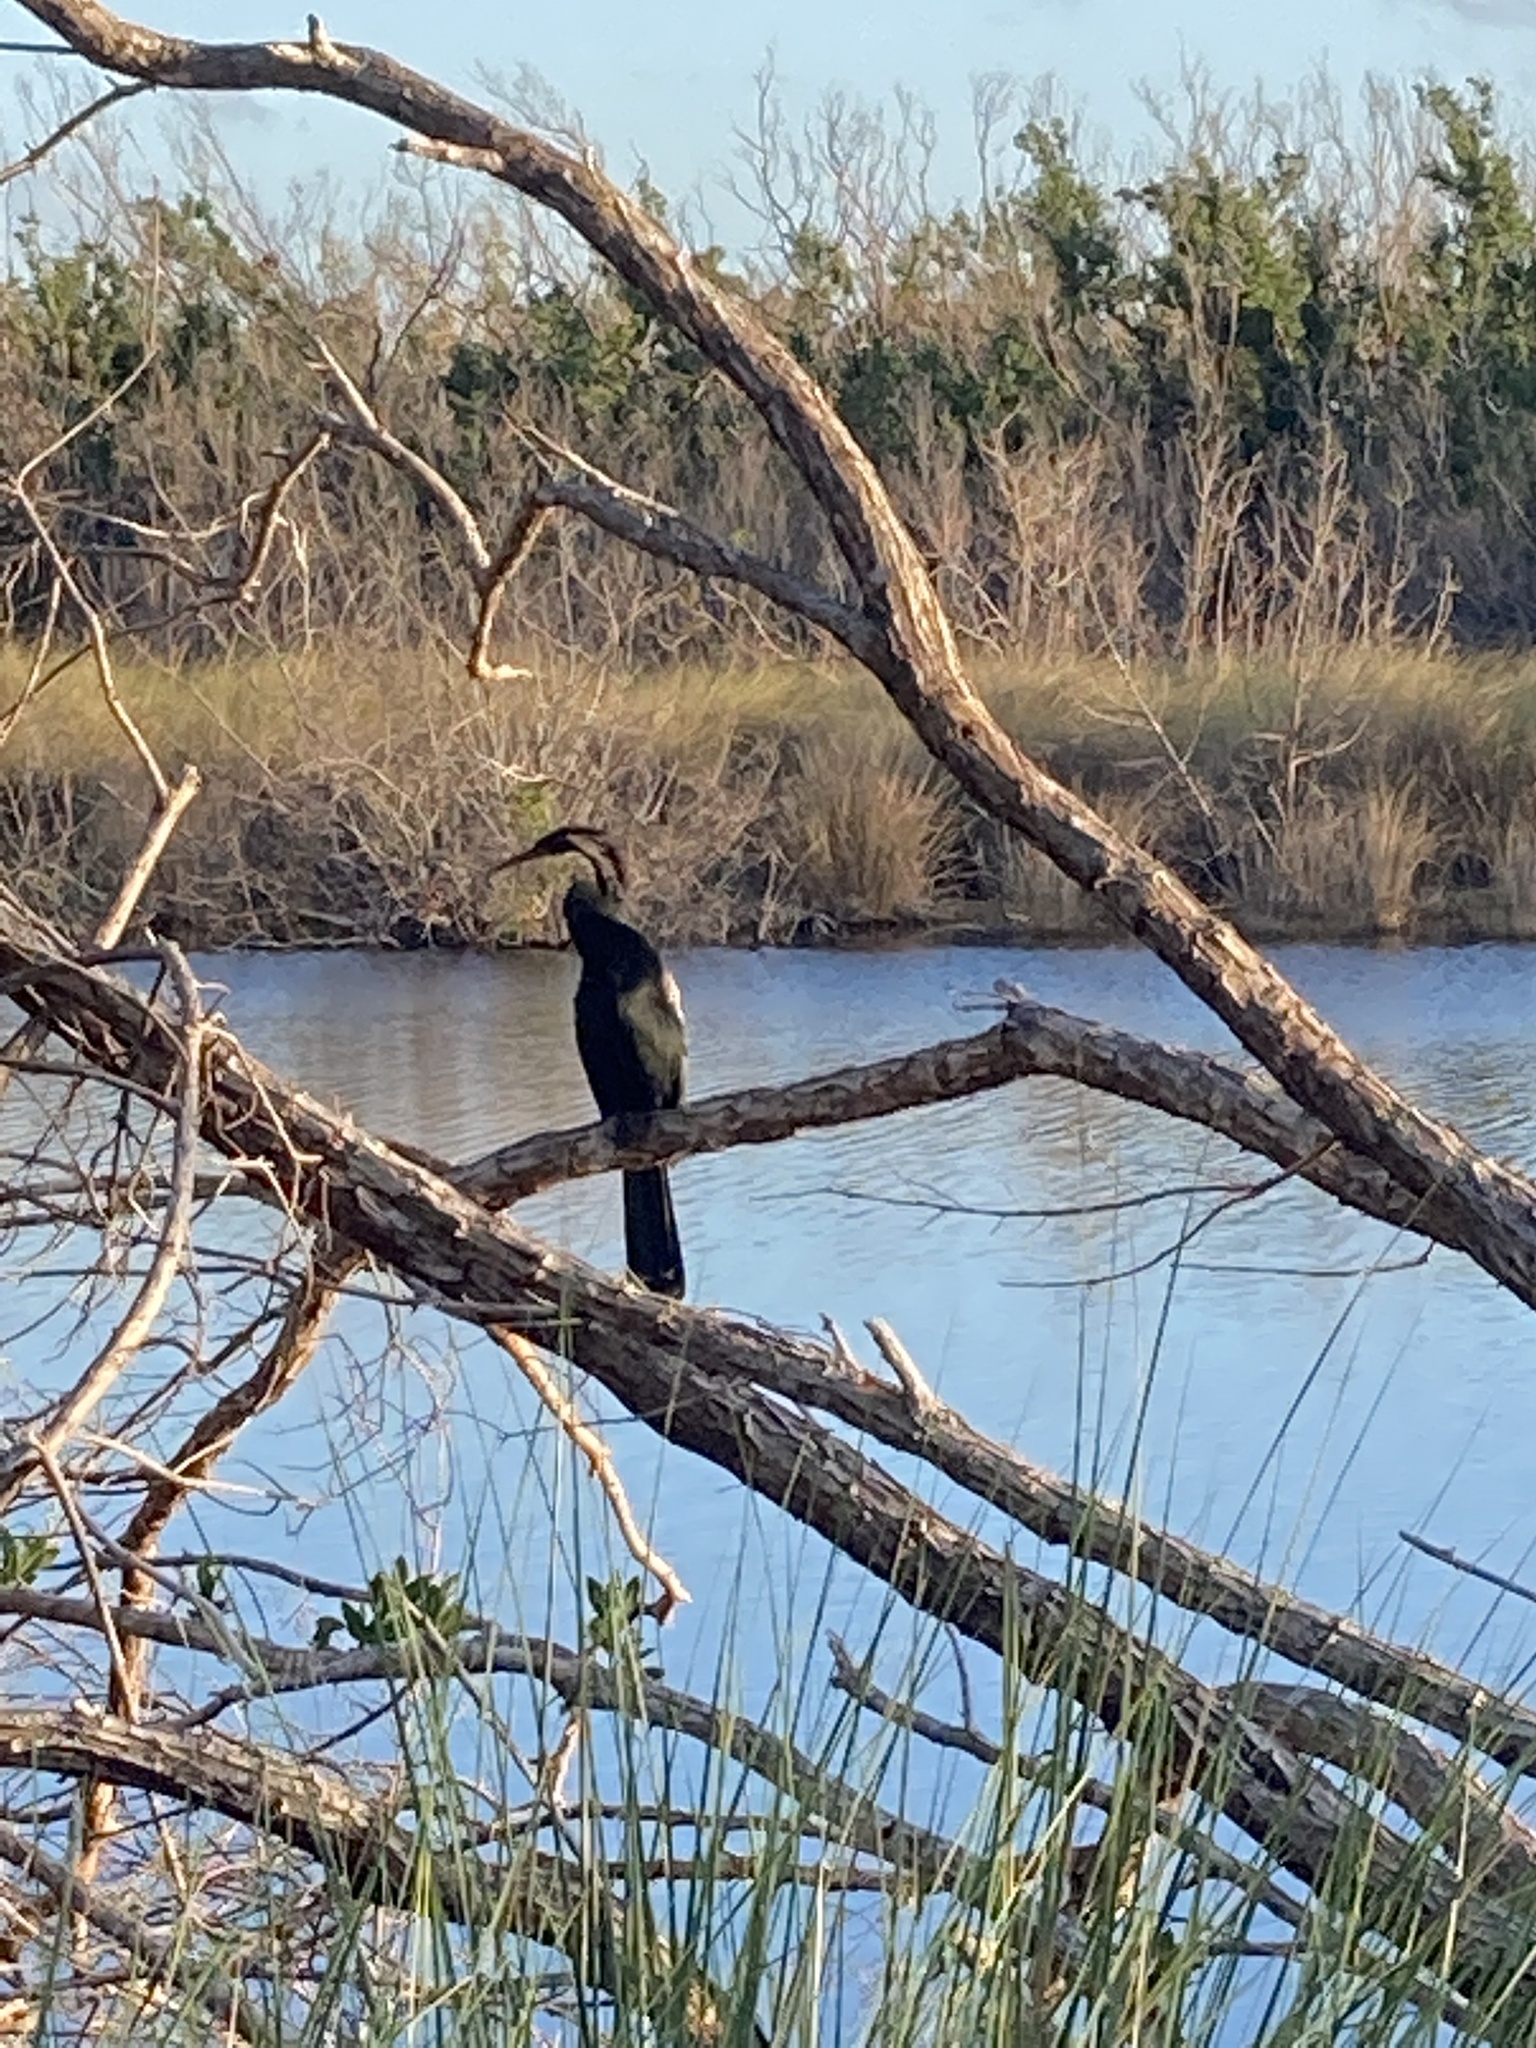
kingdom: Animalia
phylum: Chordata
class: Aves
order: Suliformes
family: Anhingidae
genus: Anhinga
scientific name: Anhinga anhinga
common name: Anhinga
